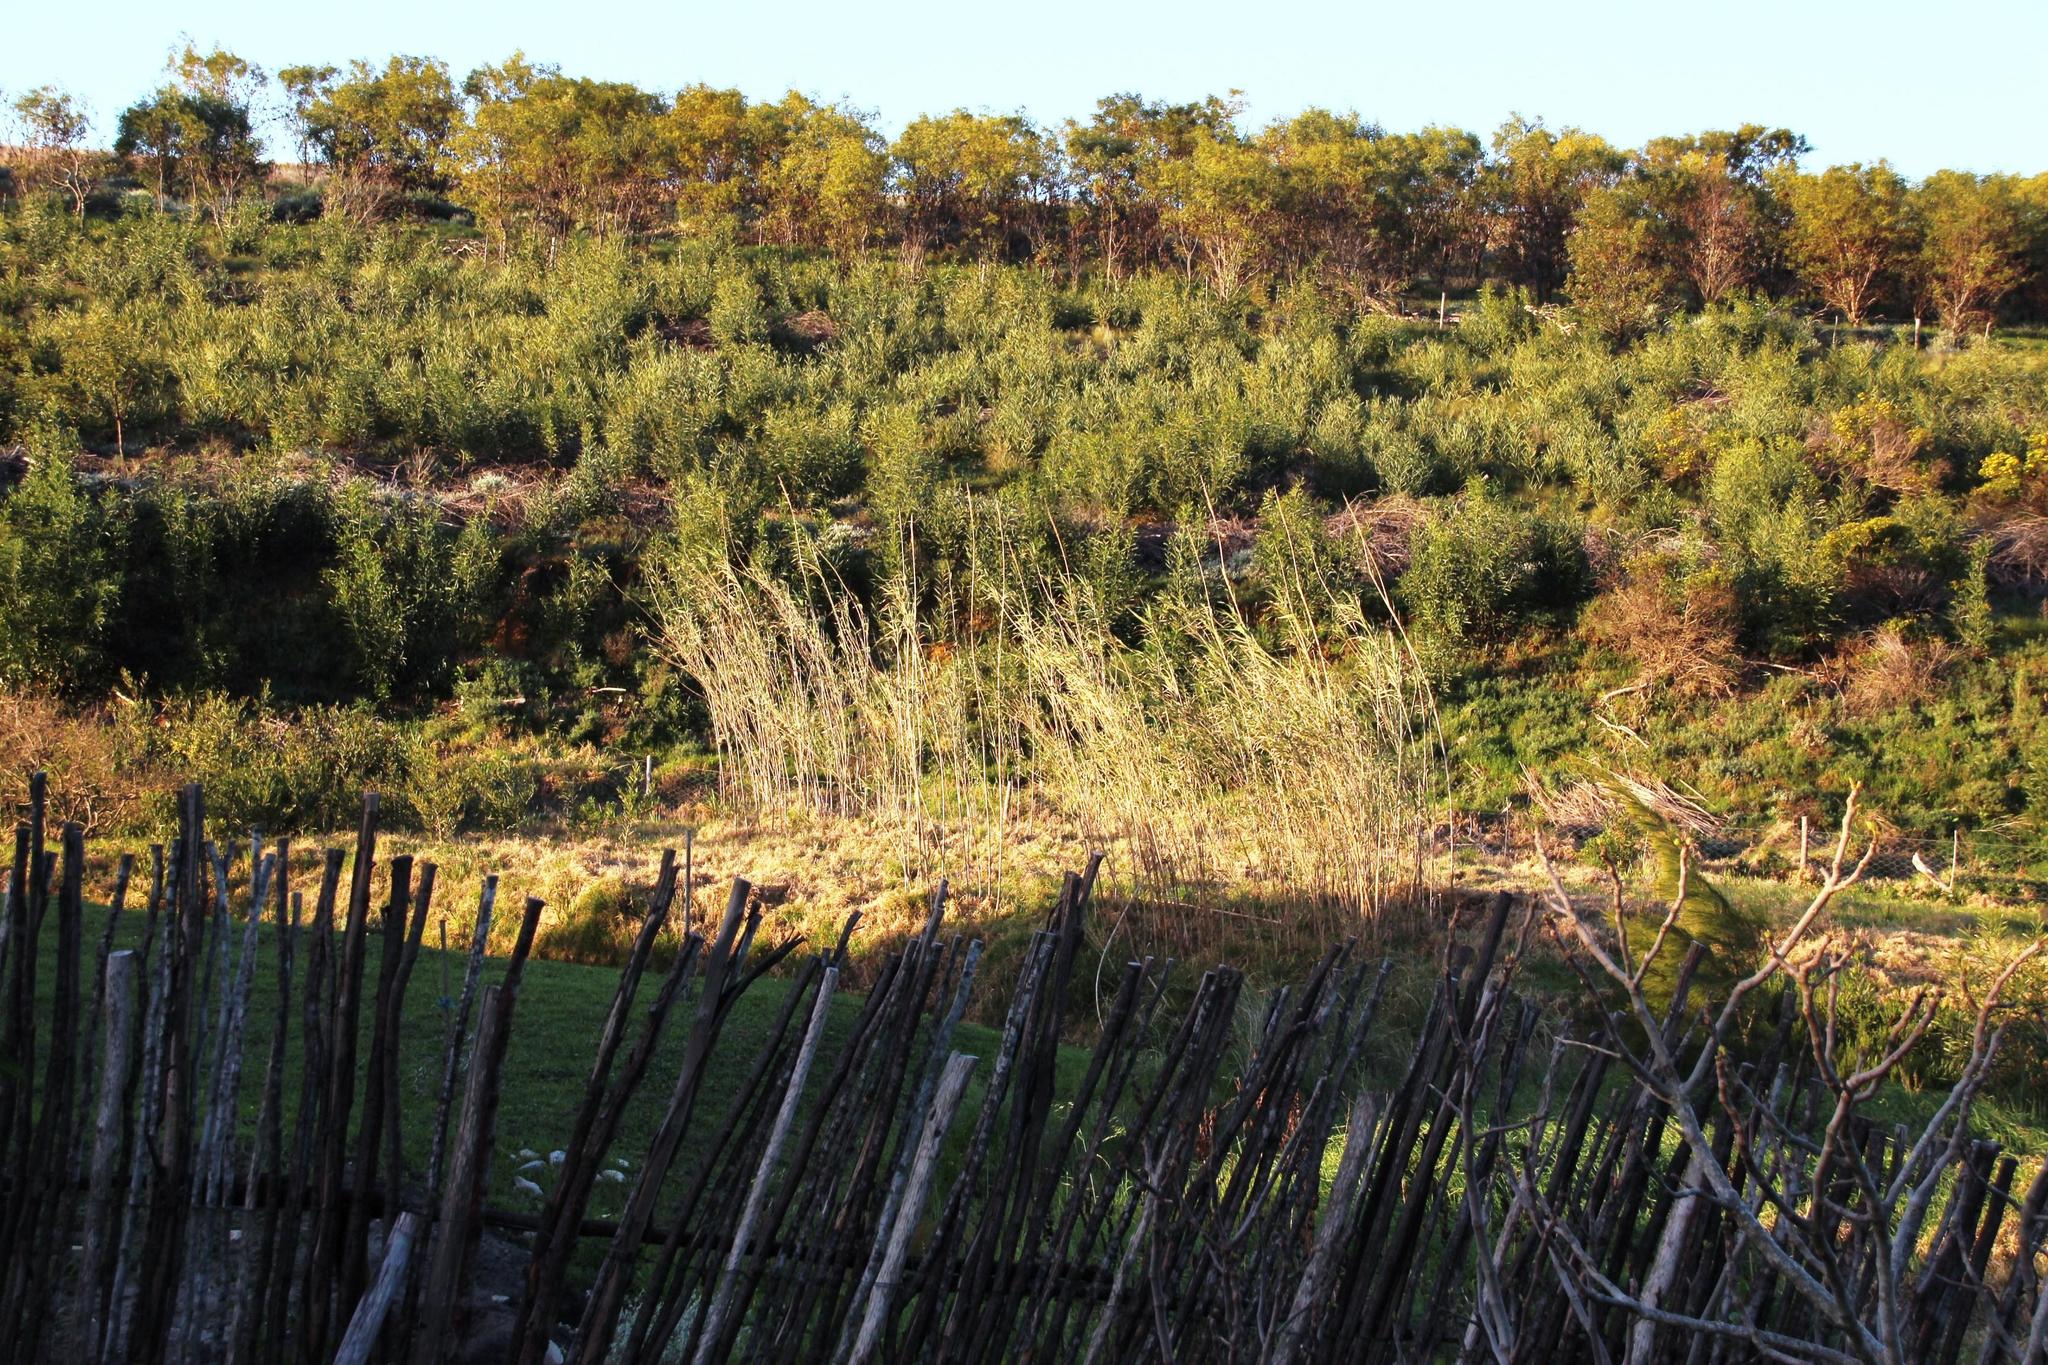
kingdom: Plantae
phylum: Tracheophyta
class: Liliopsida
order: Poales
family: Poaceae
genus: Arundo
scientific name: Arundo donax
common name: Giant reed
